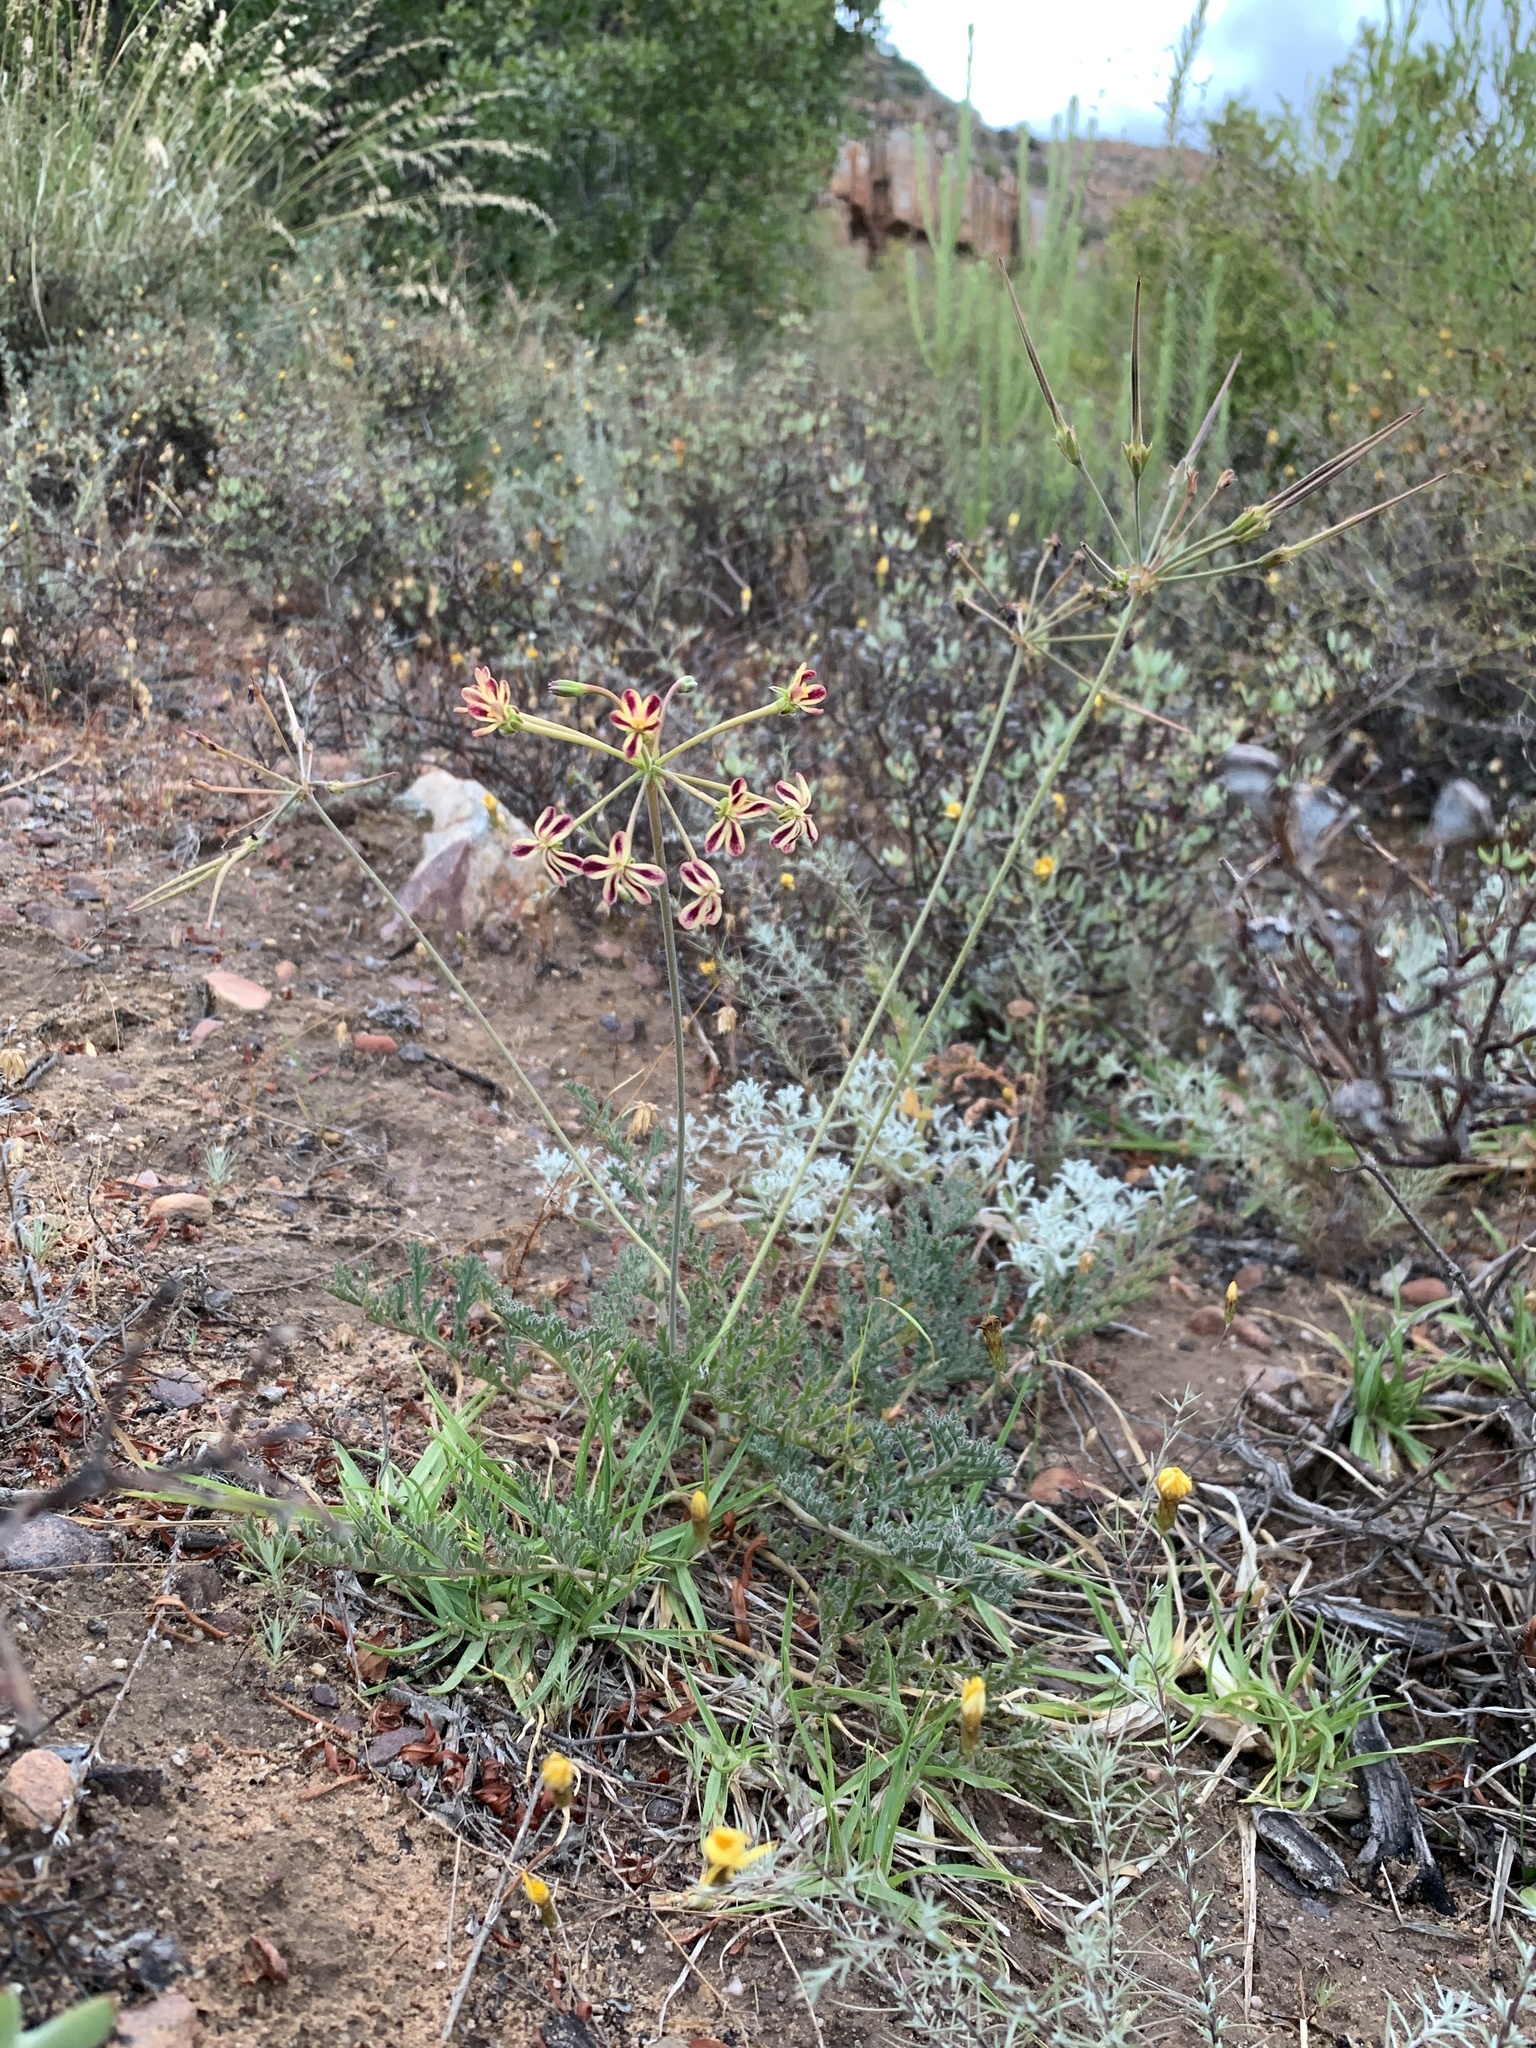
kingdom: Plantae
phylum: Tracheophyta
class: Magnoliopsida
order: Geraniales
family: Geraniaceae
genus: Pelargonium
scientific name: Pelargonium triste
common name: Night-scent pelargonium
